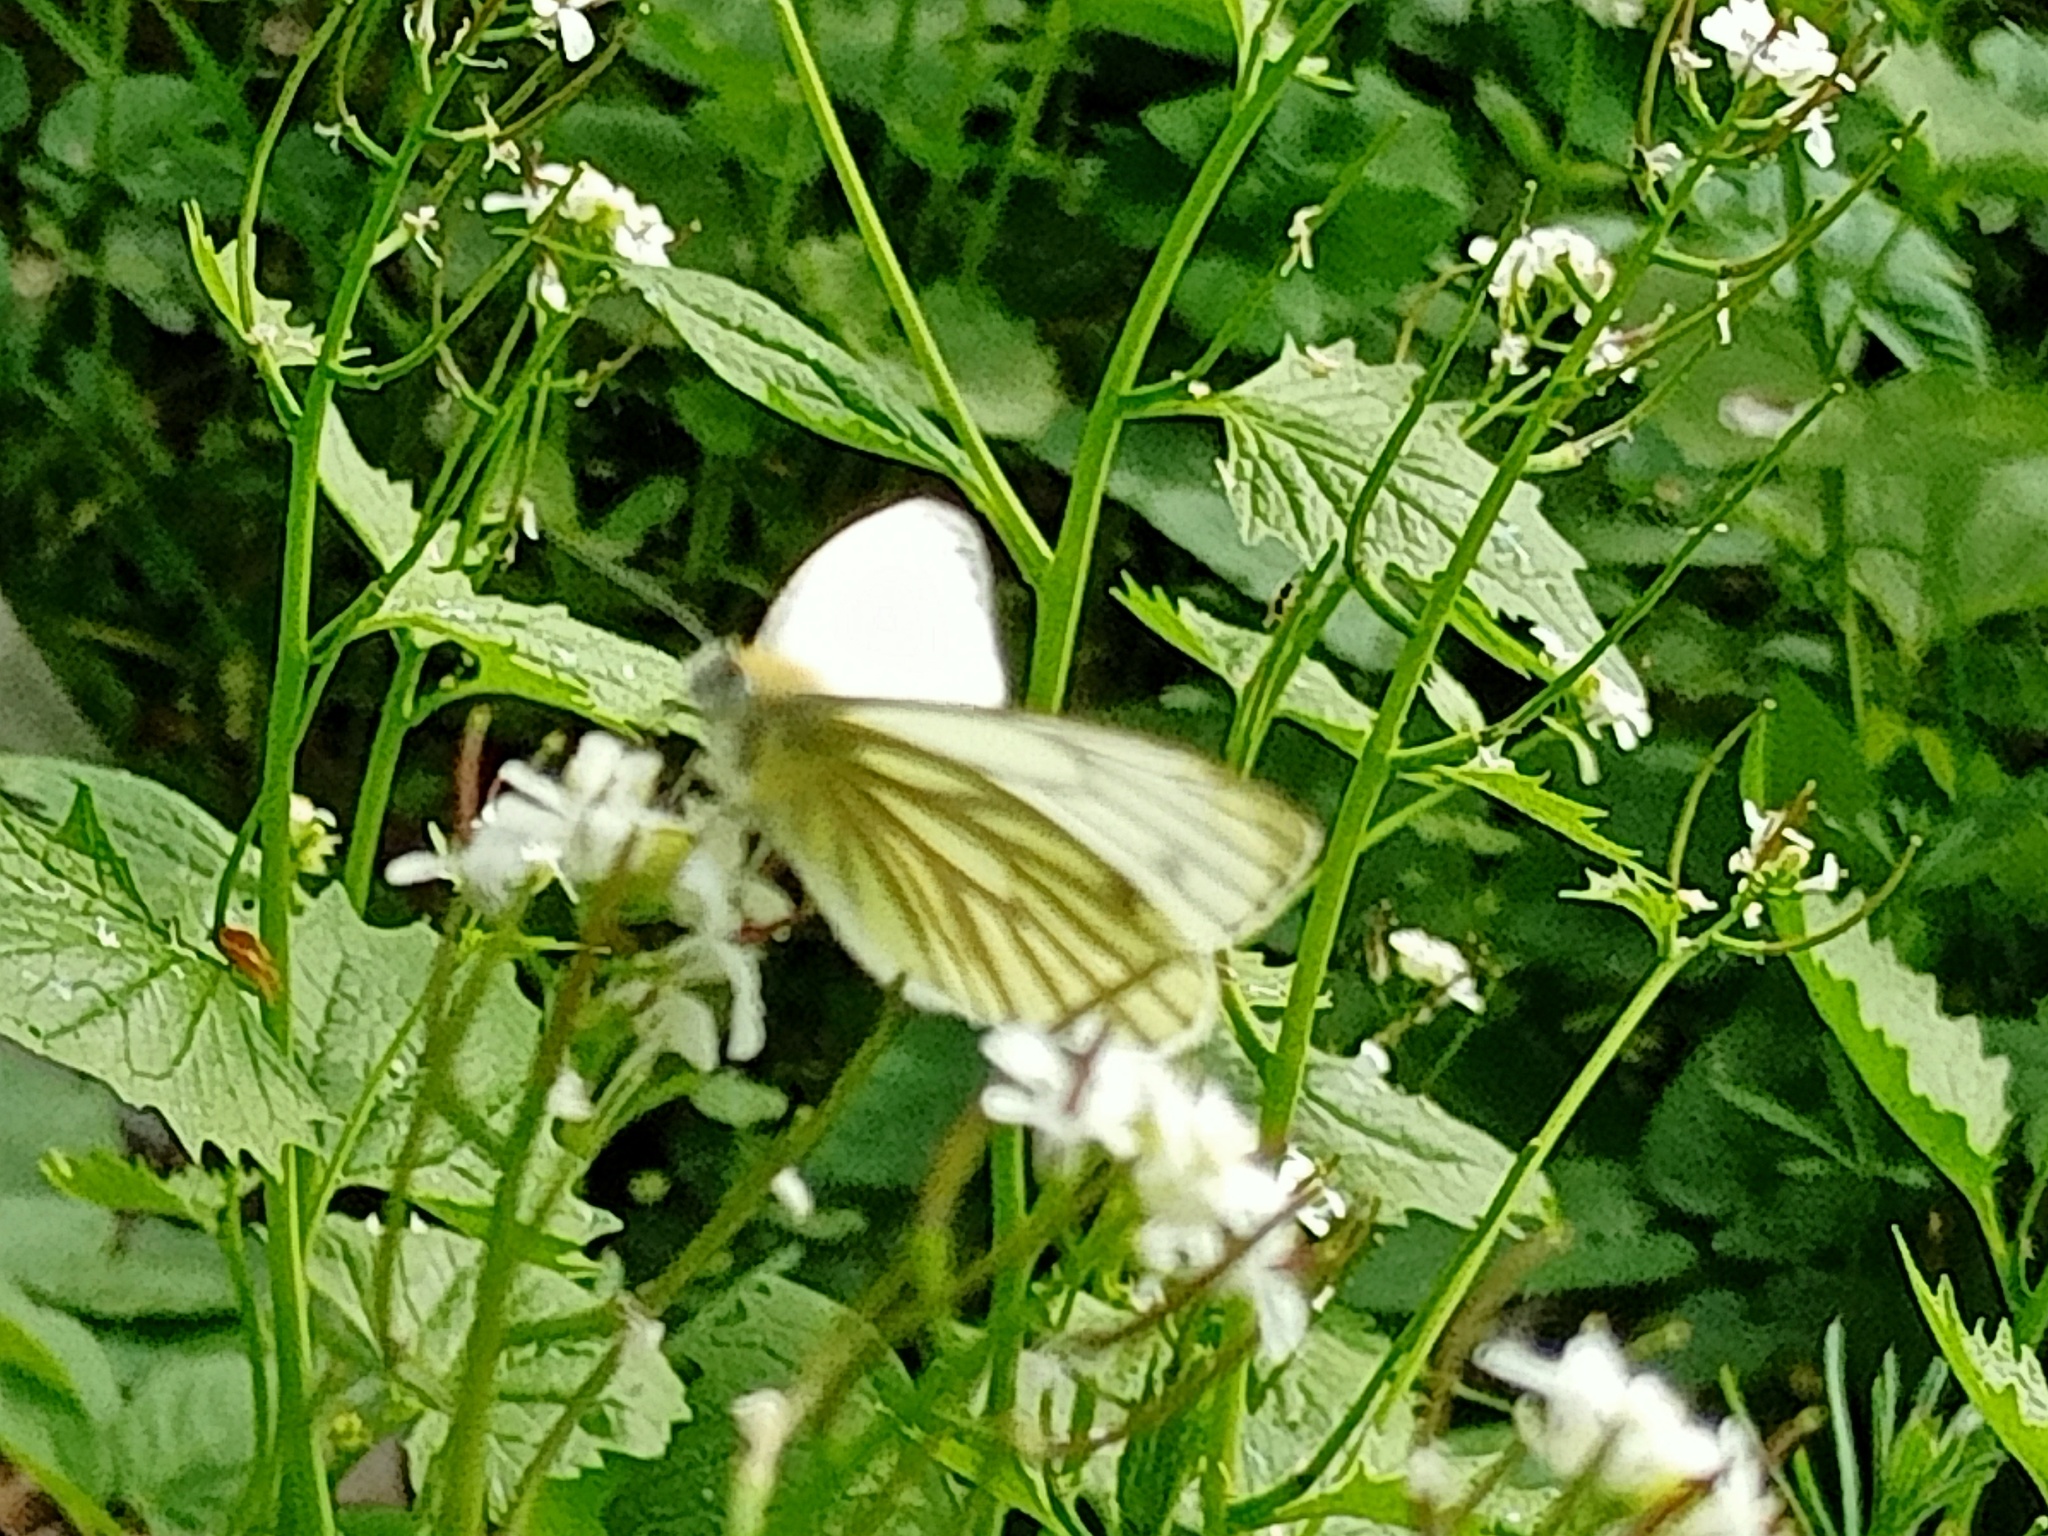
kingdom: Animalia
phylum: Arthropoda
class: Insecta
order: Lepidoptera
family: Pieridae
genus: Pieris
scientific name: Pieris napi
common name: Green-veined white
